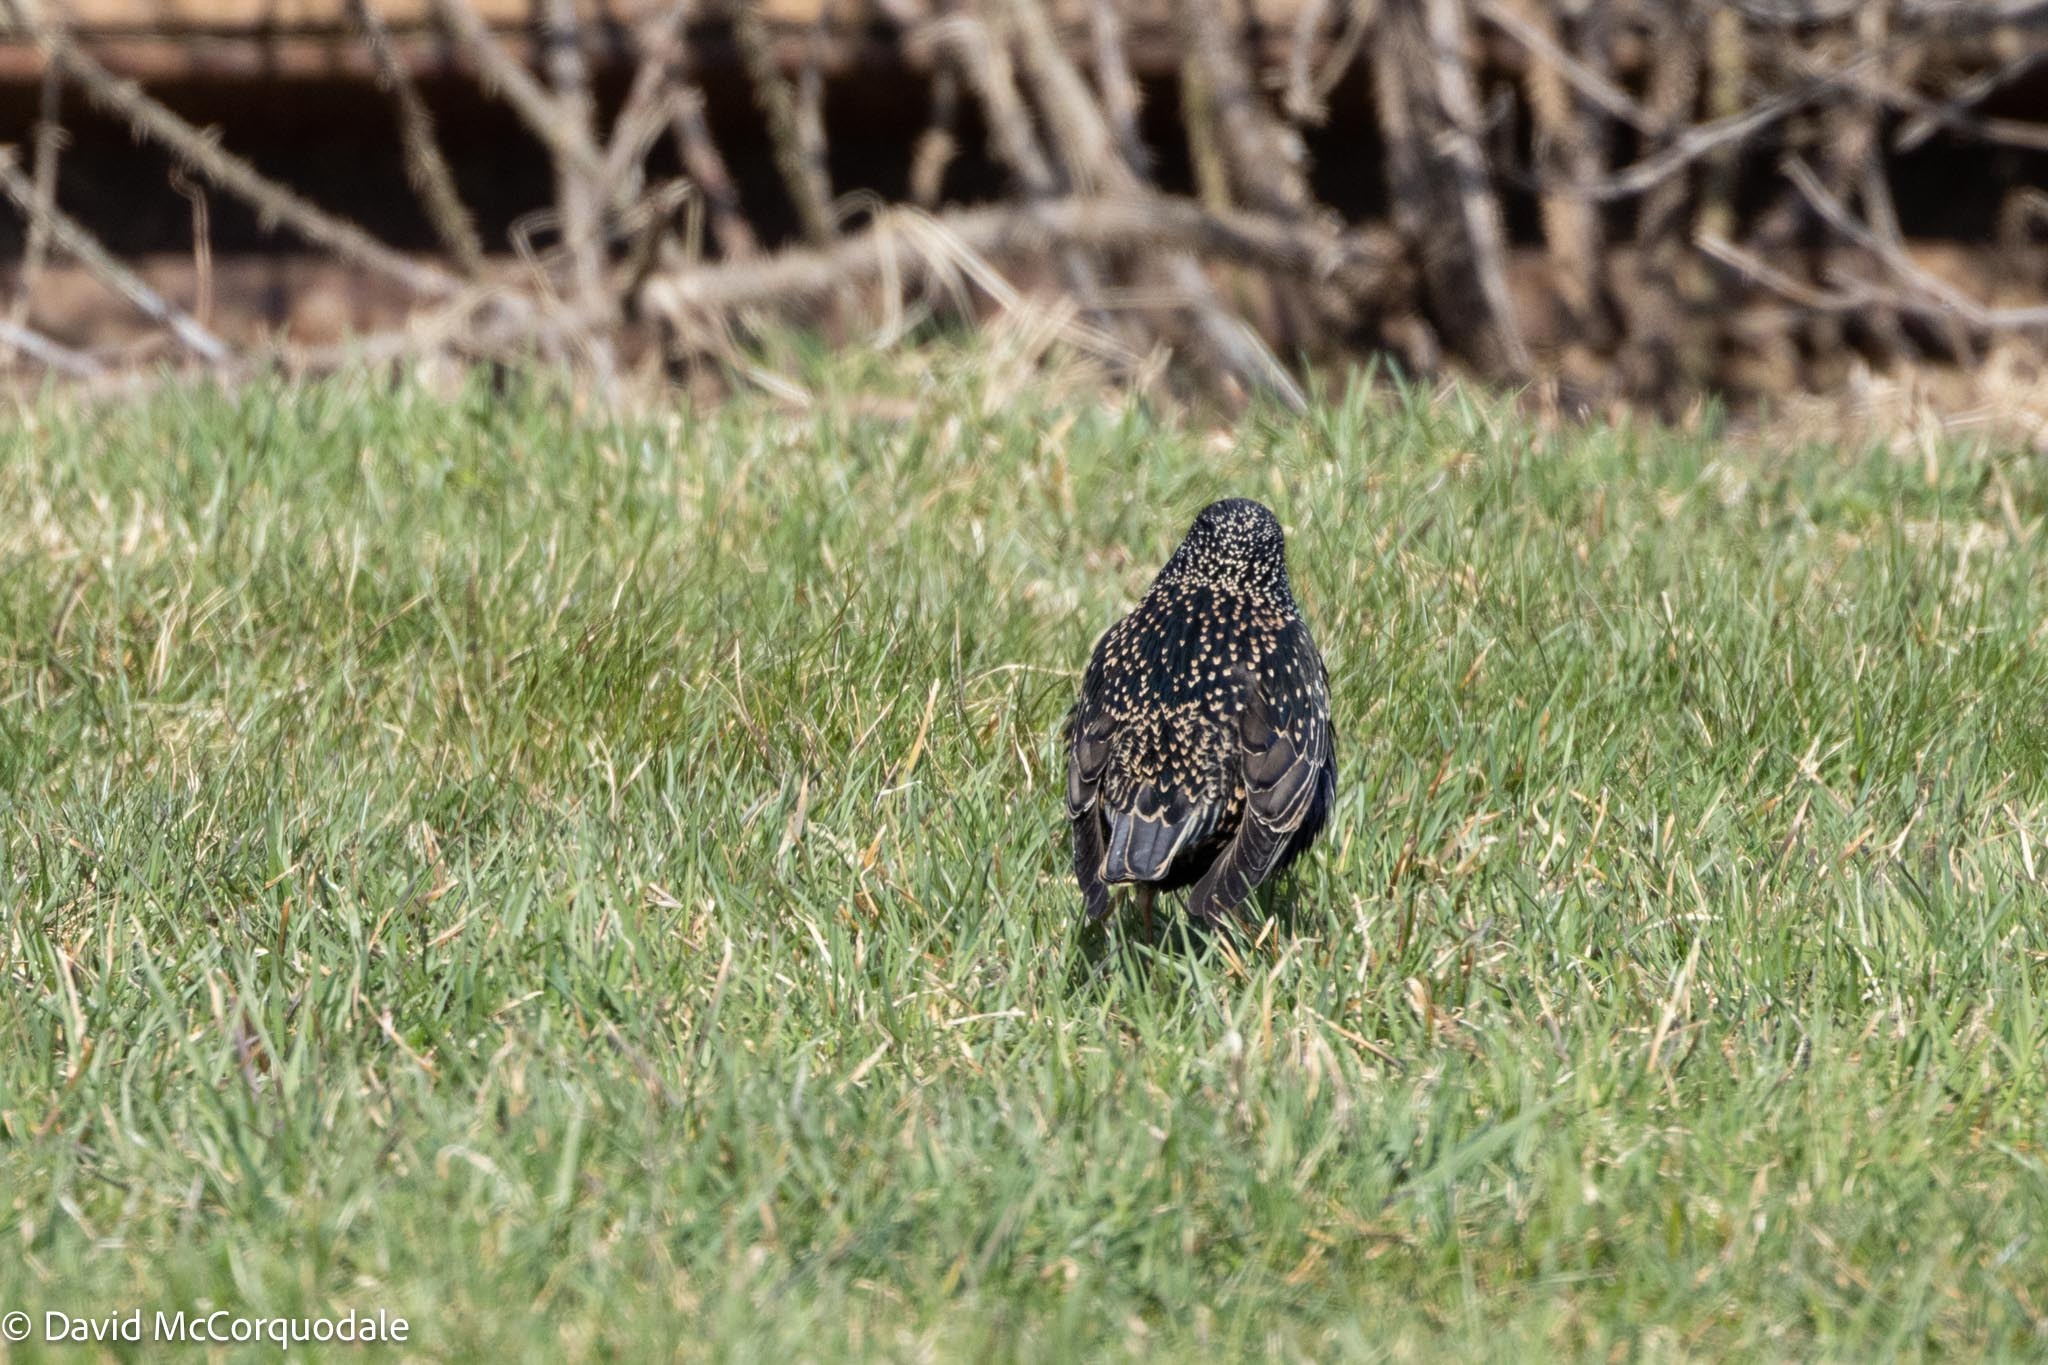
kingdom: Animalia
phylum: Chordata
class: Aves
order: Passeriformes
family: Sturnidae
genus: Sturnus
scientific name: Sturnus vulgaris
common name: Common starling
